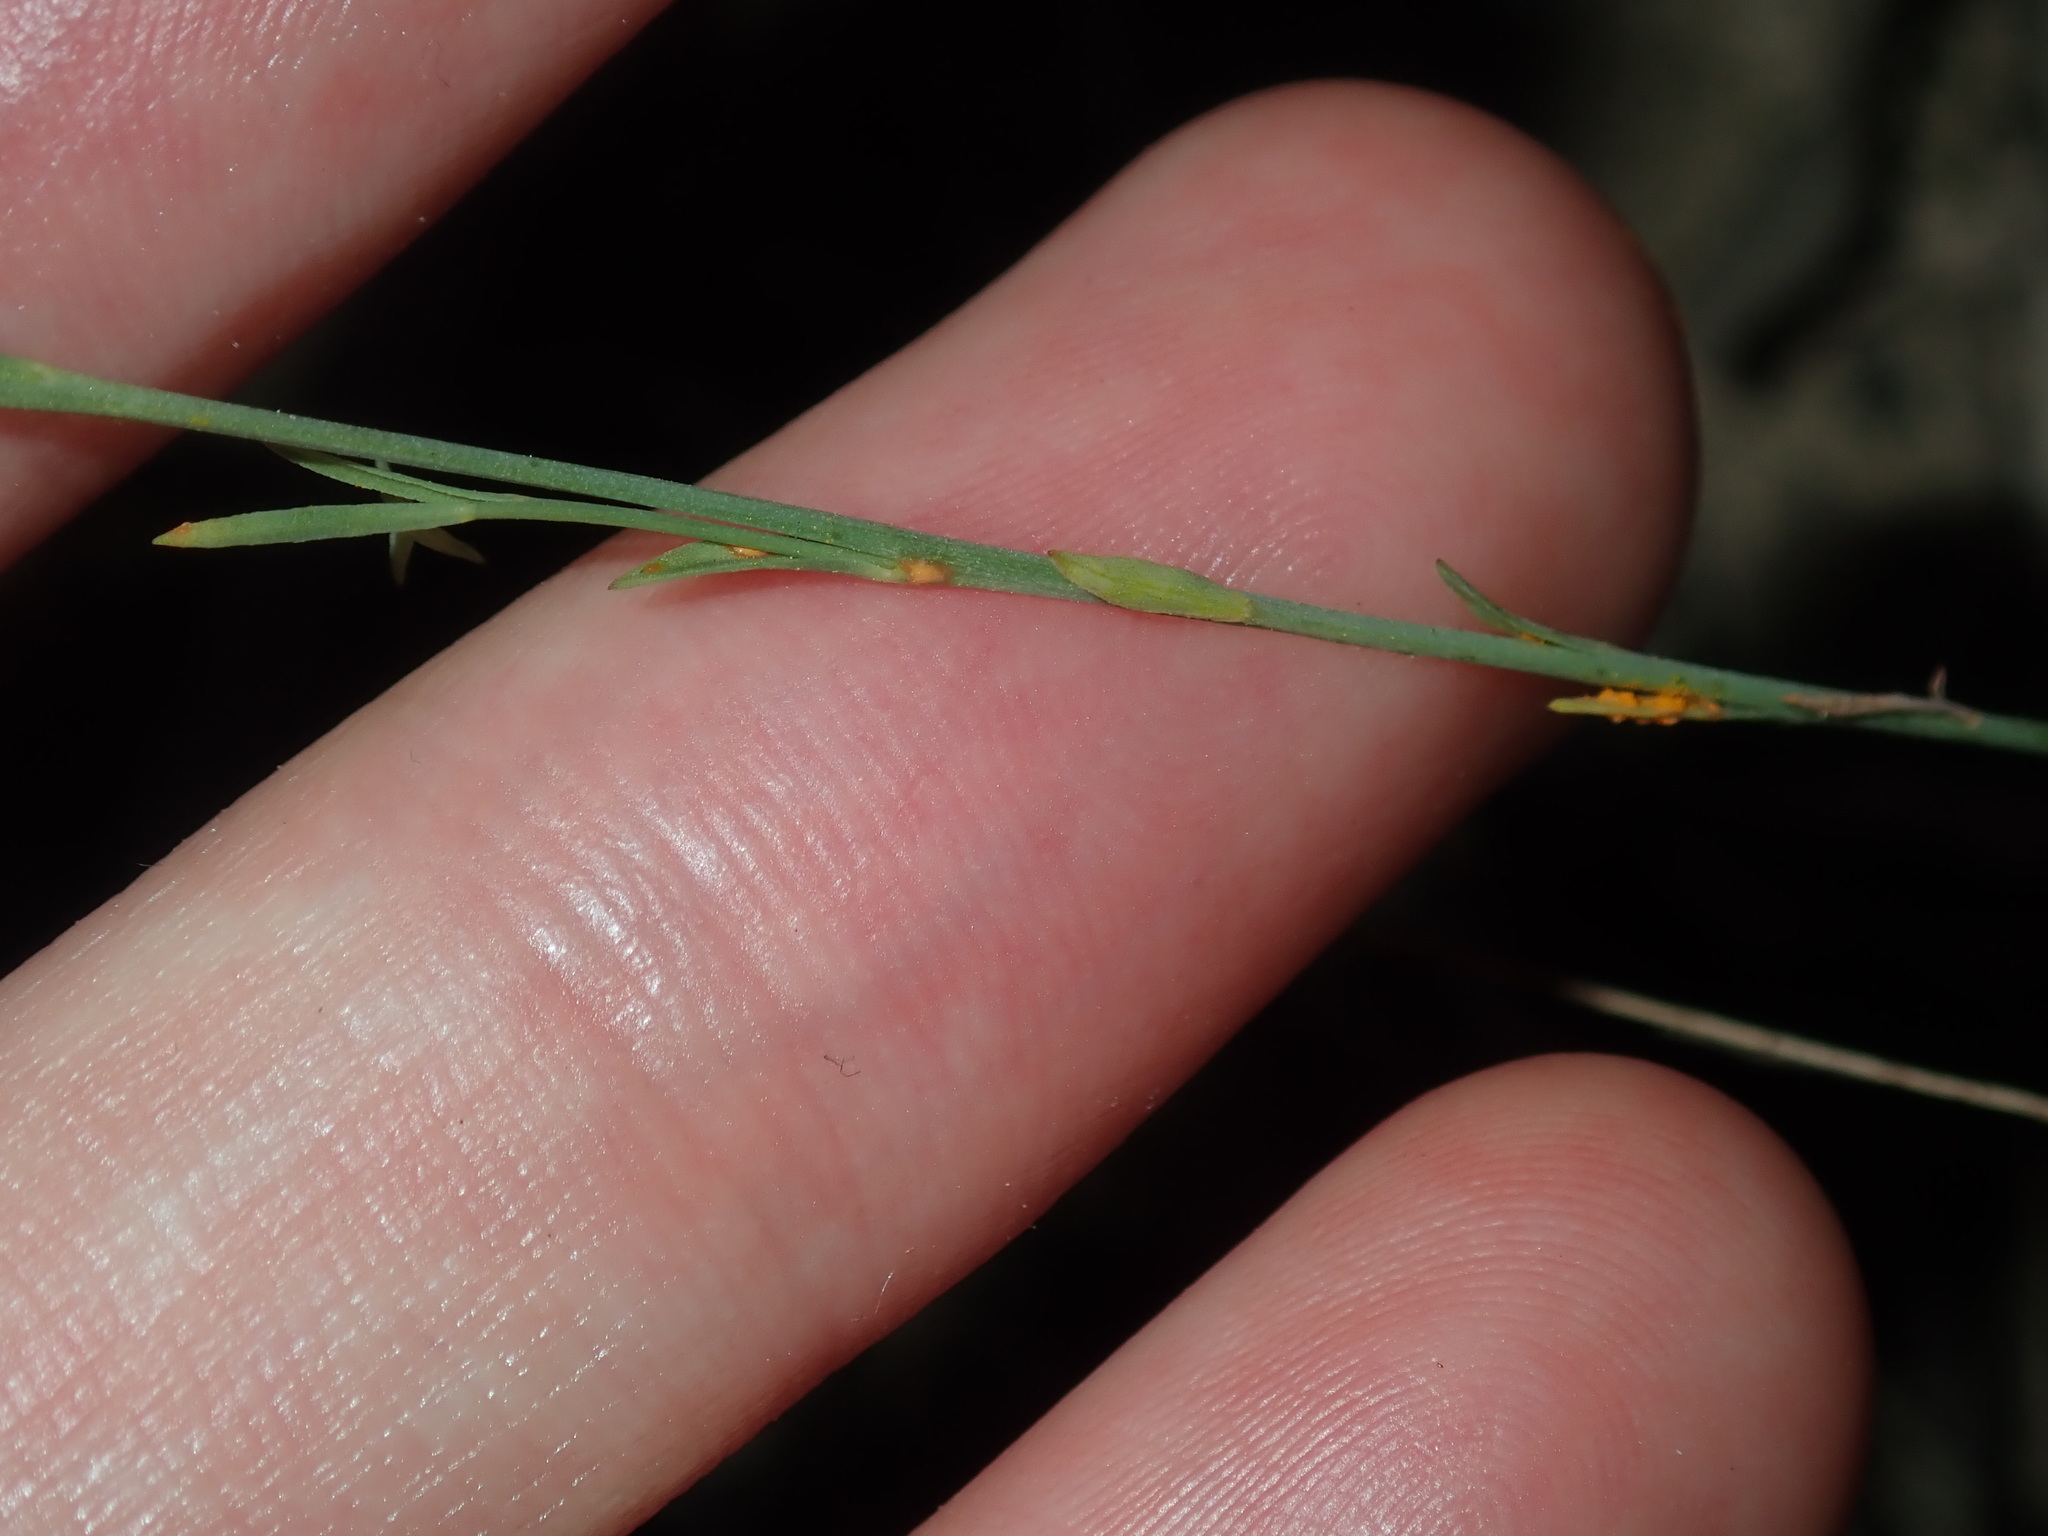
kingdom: Plantae
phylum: Tracheophyta
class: Magnoliopsida
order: Malpighiales
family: Linaceae
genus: Linum
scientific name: Linum marginale
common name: Wild flax
